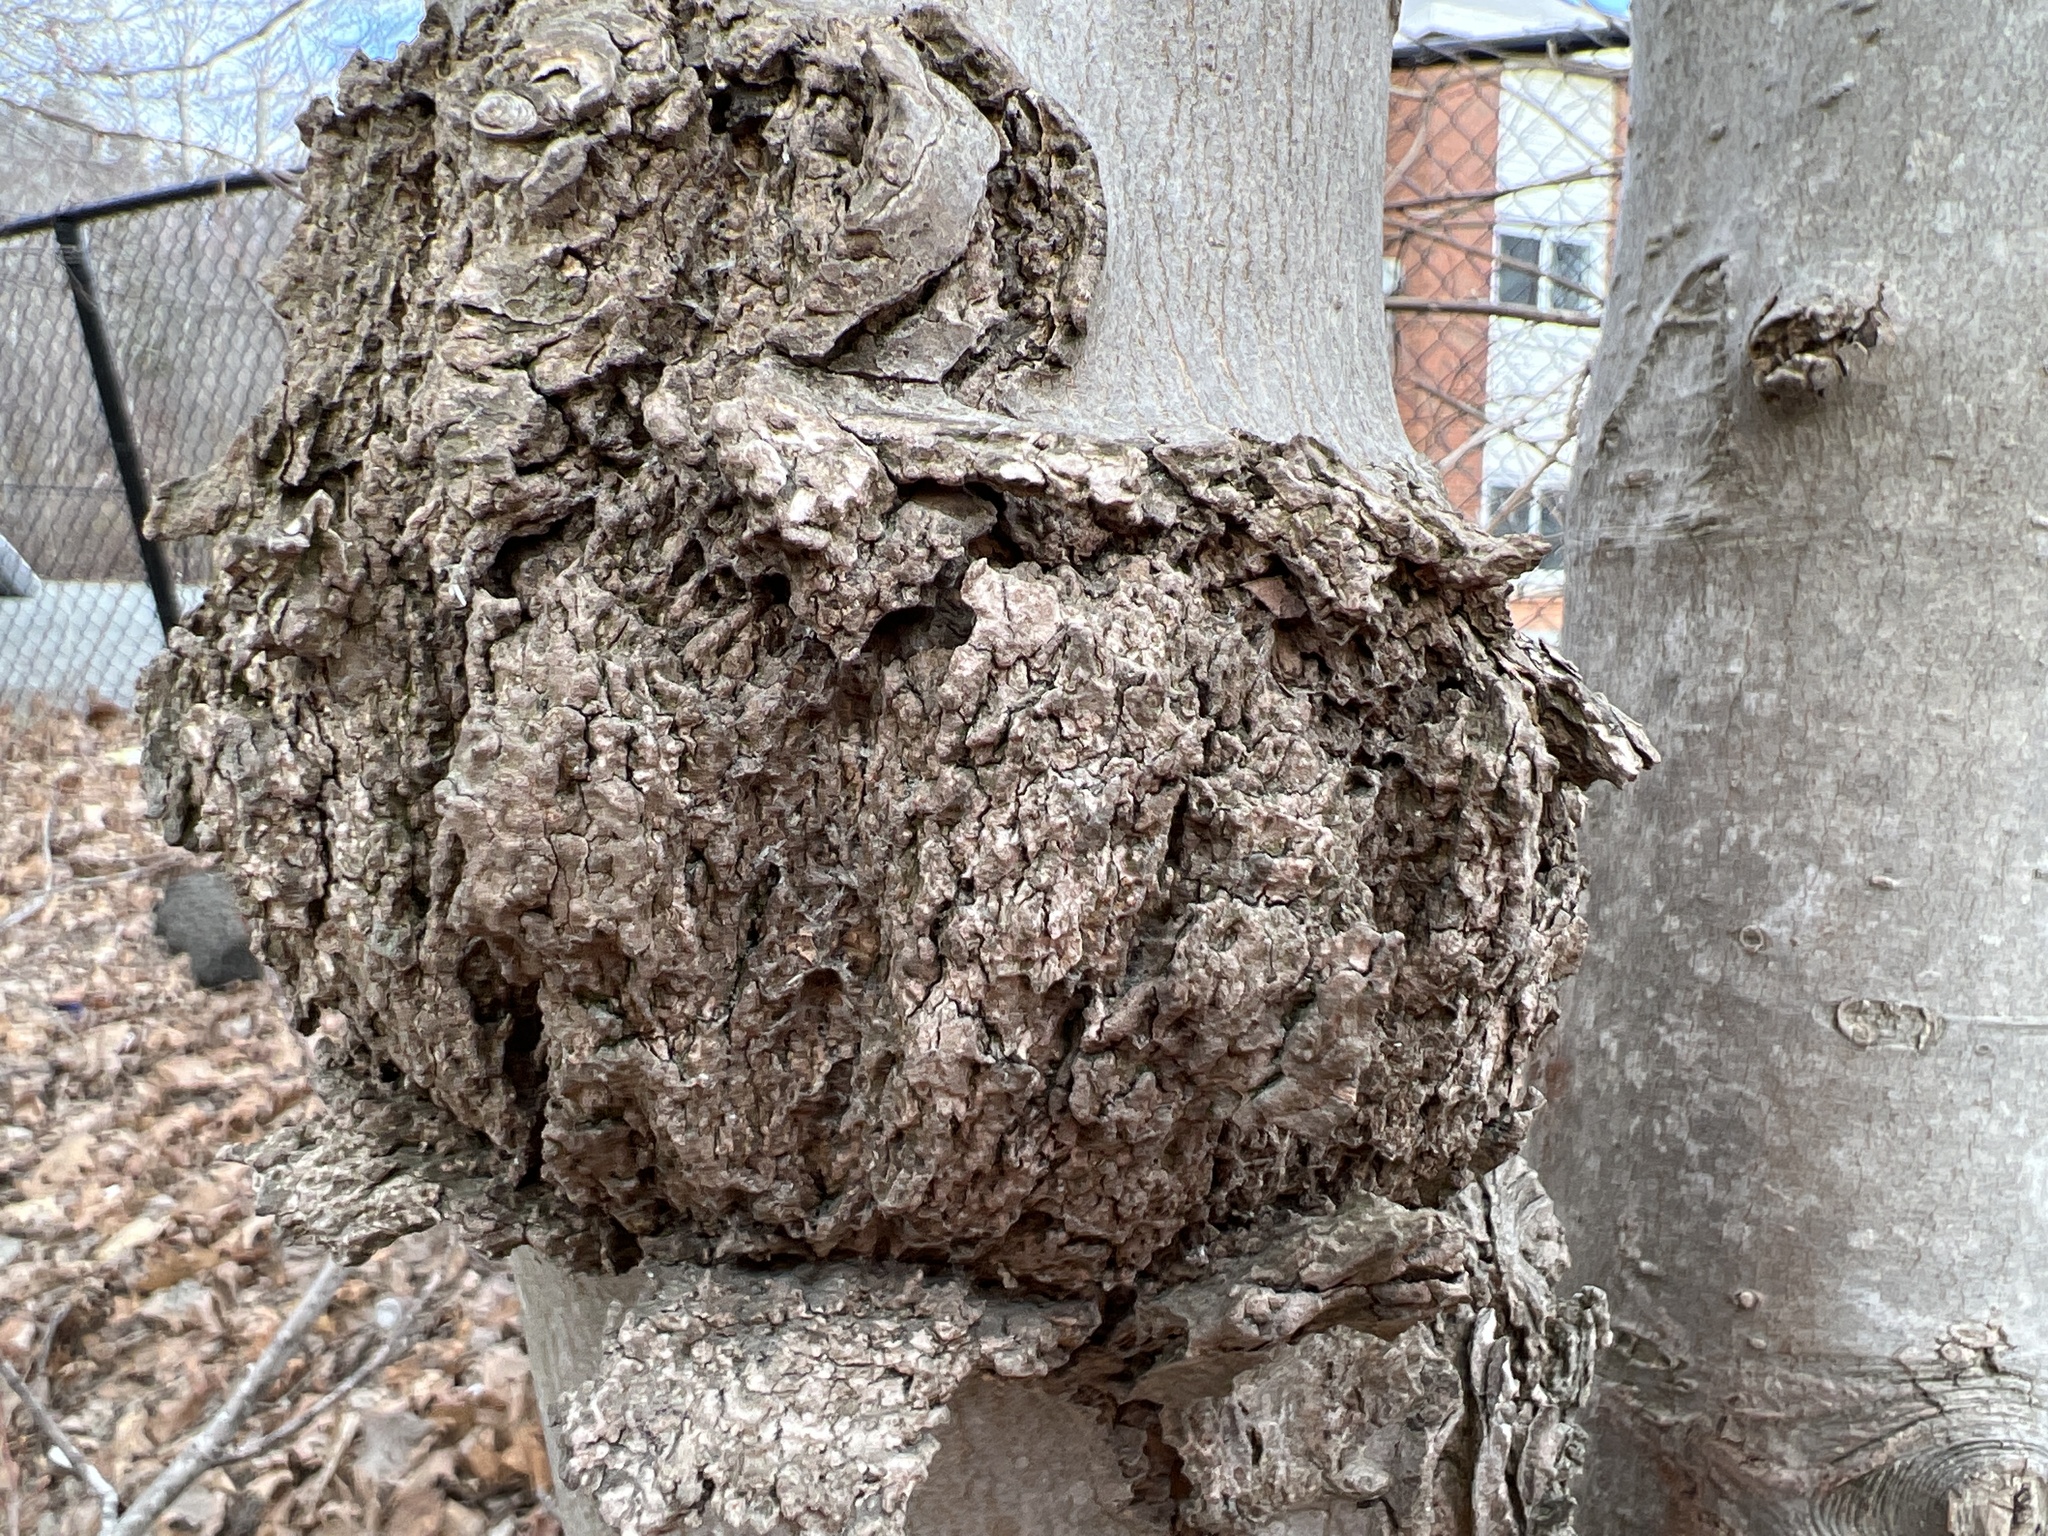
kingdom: Bacteria
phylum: Proteobacteria
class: Alphaproteobacteria
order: Rhizobiales
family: Rhizobiaceae
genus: Rhizobium
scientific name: Rhizobium Agrobacterium radiobacter
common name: Bacterial crown gall
